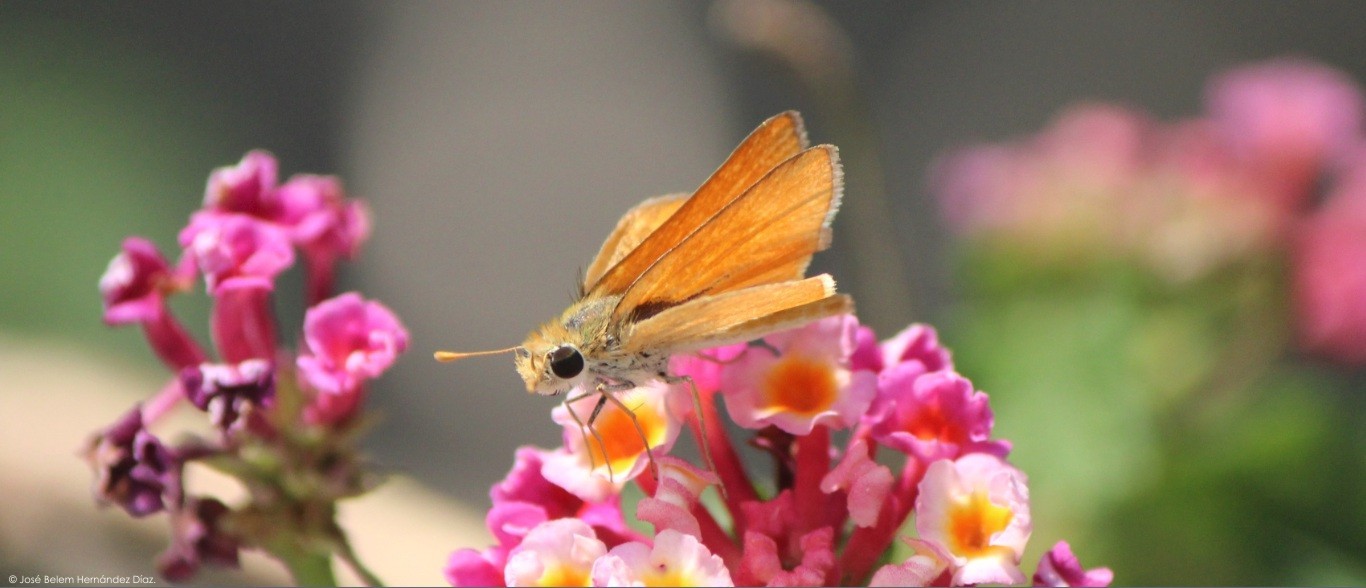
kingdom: Animalia
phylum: Arthropoda
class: Insecta
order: Lepidoptera
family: Hesperiidae
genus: Copaeodes
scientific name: Copaeodes aurantiaca
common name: Orange skipperling
